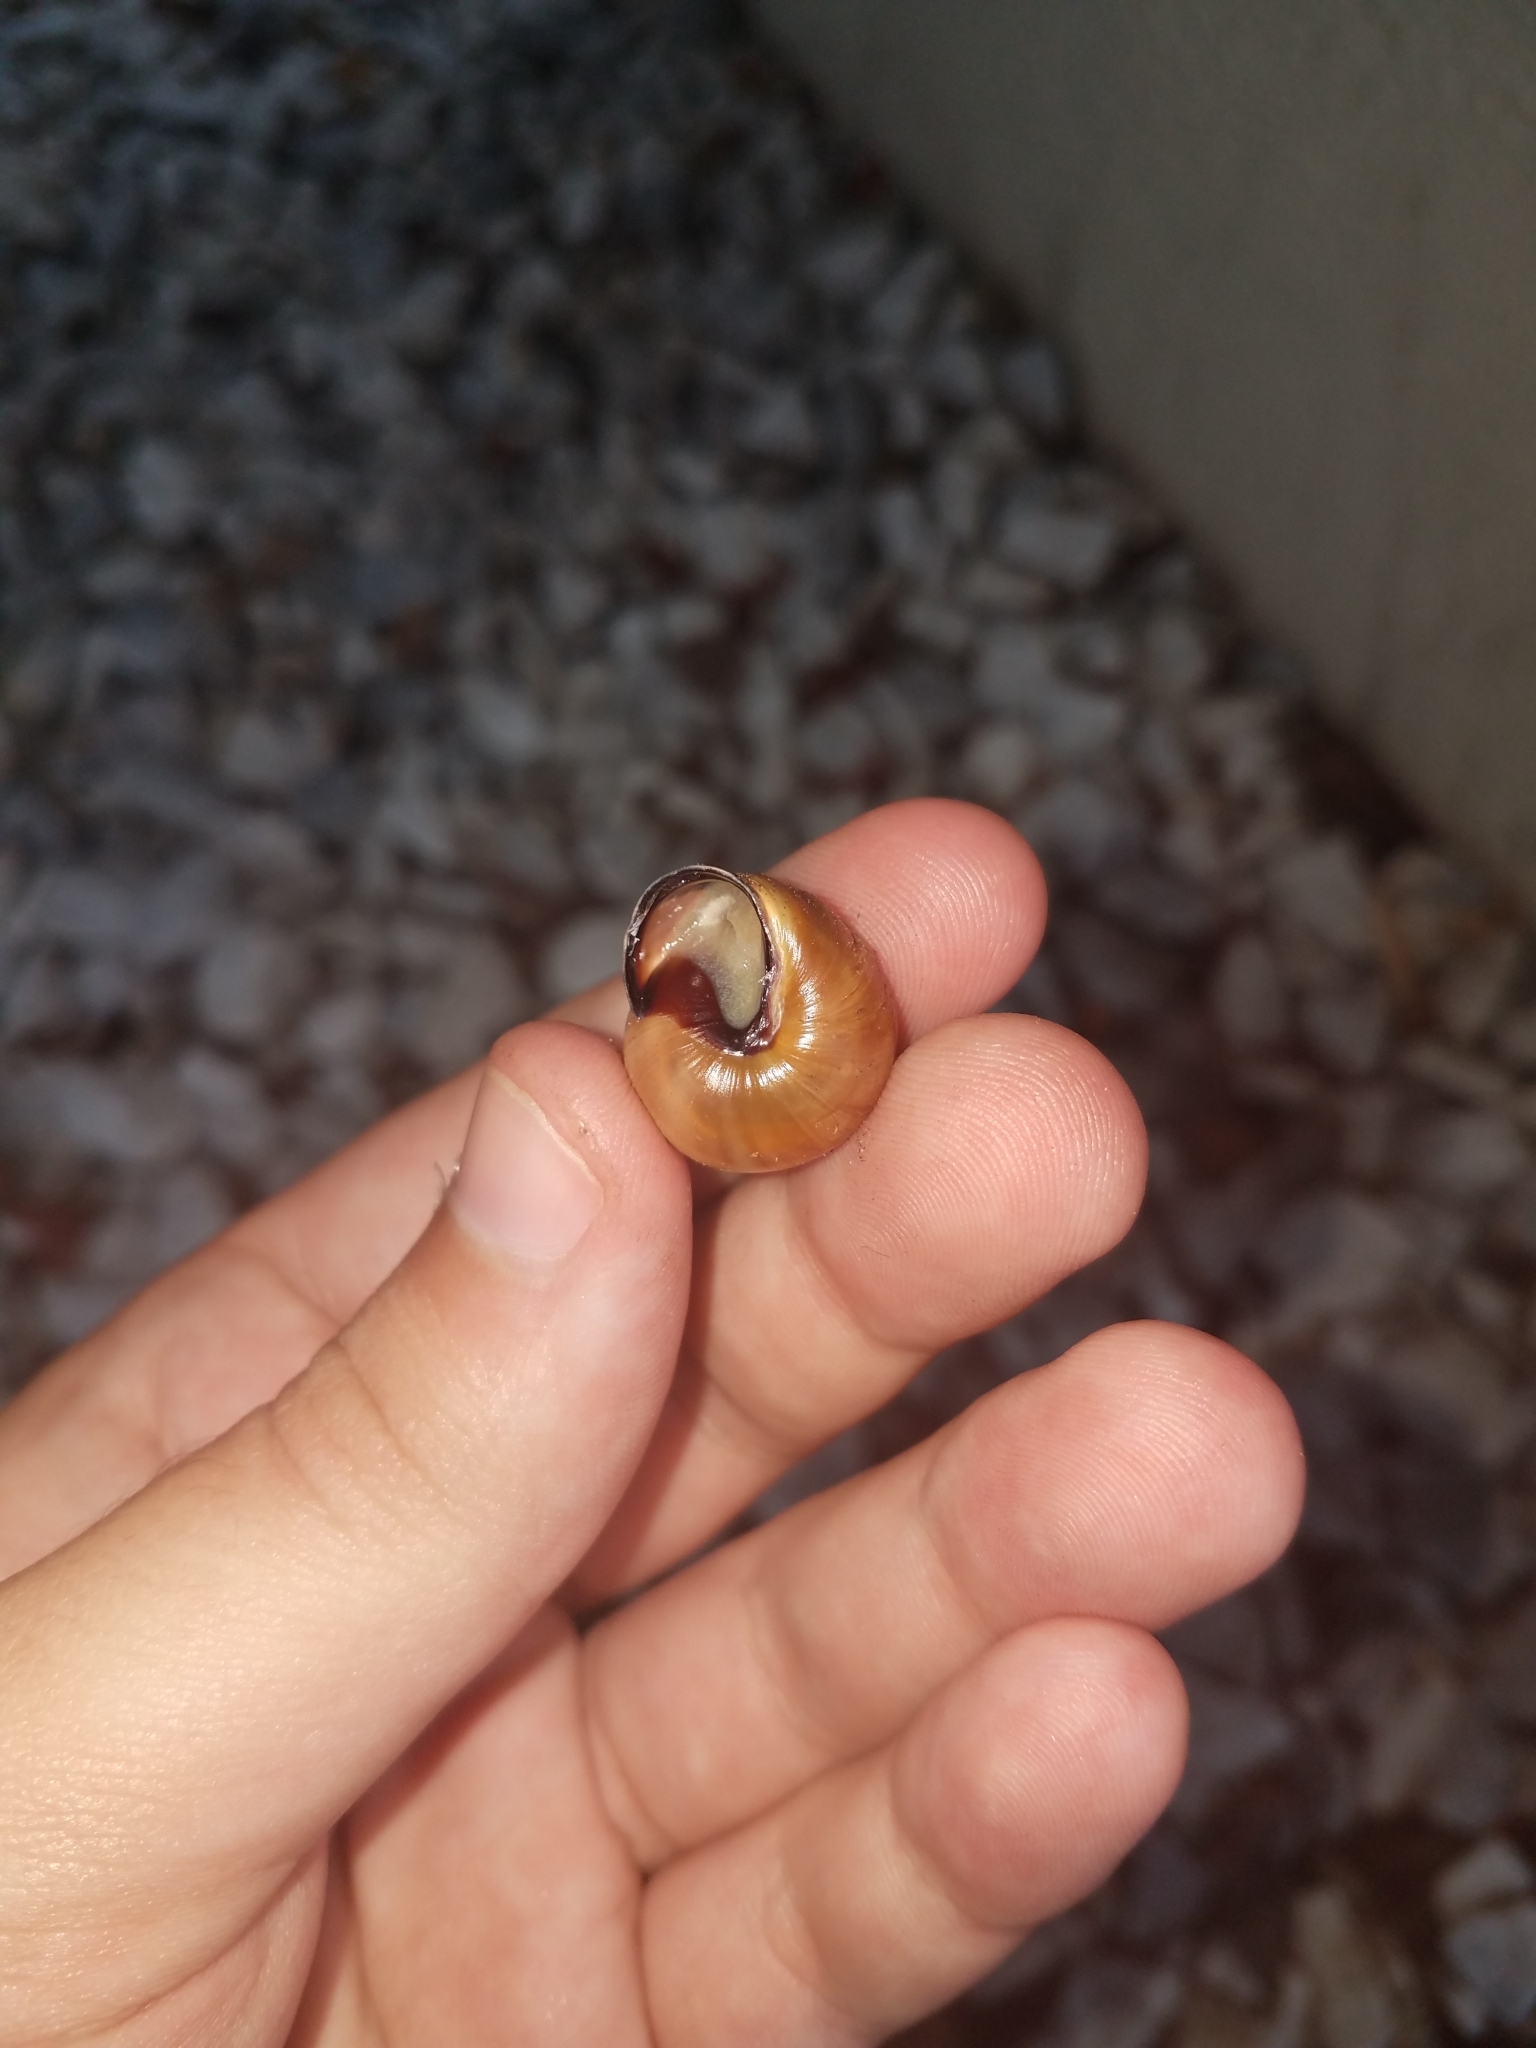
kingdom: Animalia
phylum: Mollusca
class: Gastropoda
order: Stylommatophora
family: Helicidae
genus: Cepaea
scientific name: Cepaea nemoralis
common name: Grovesnail
